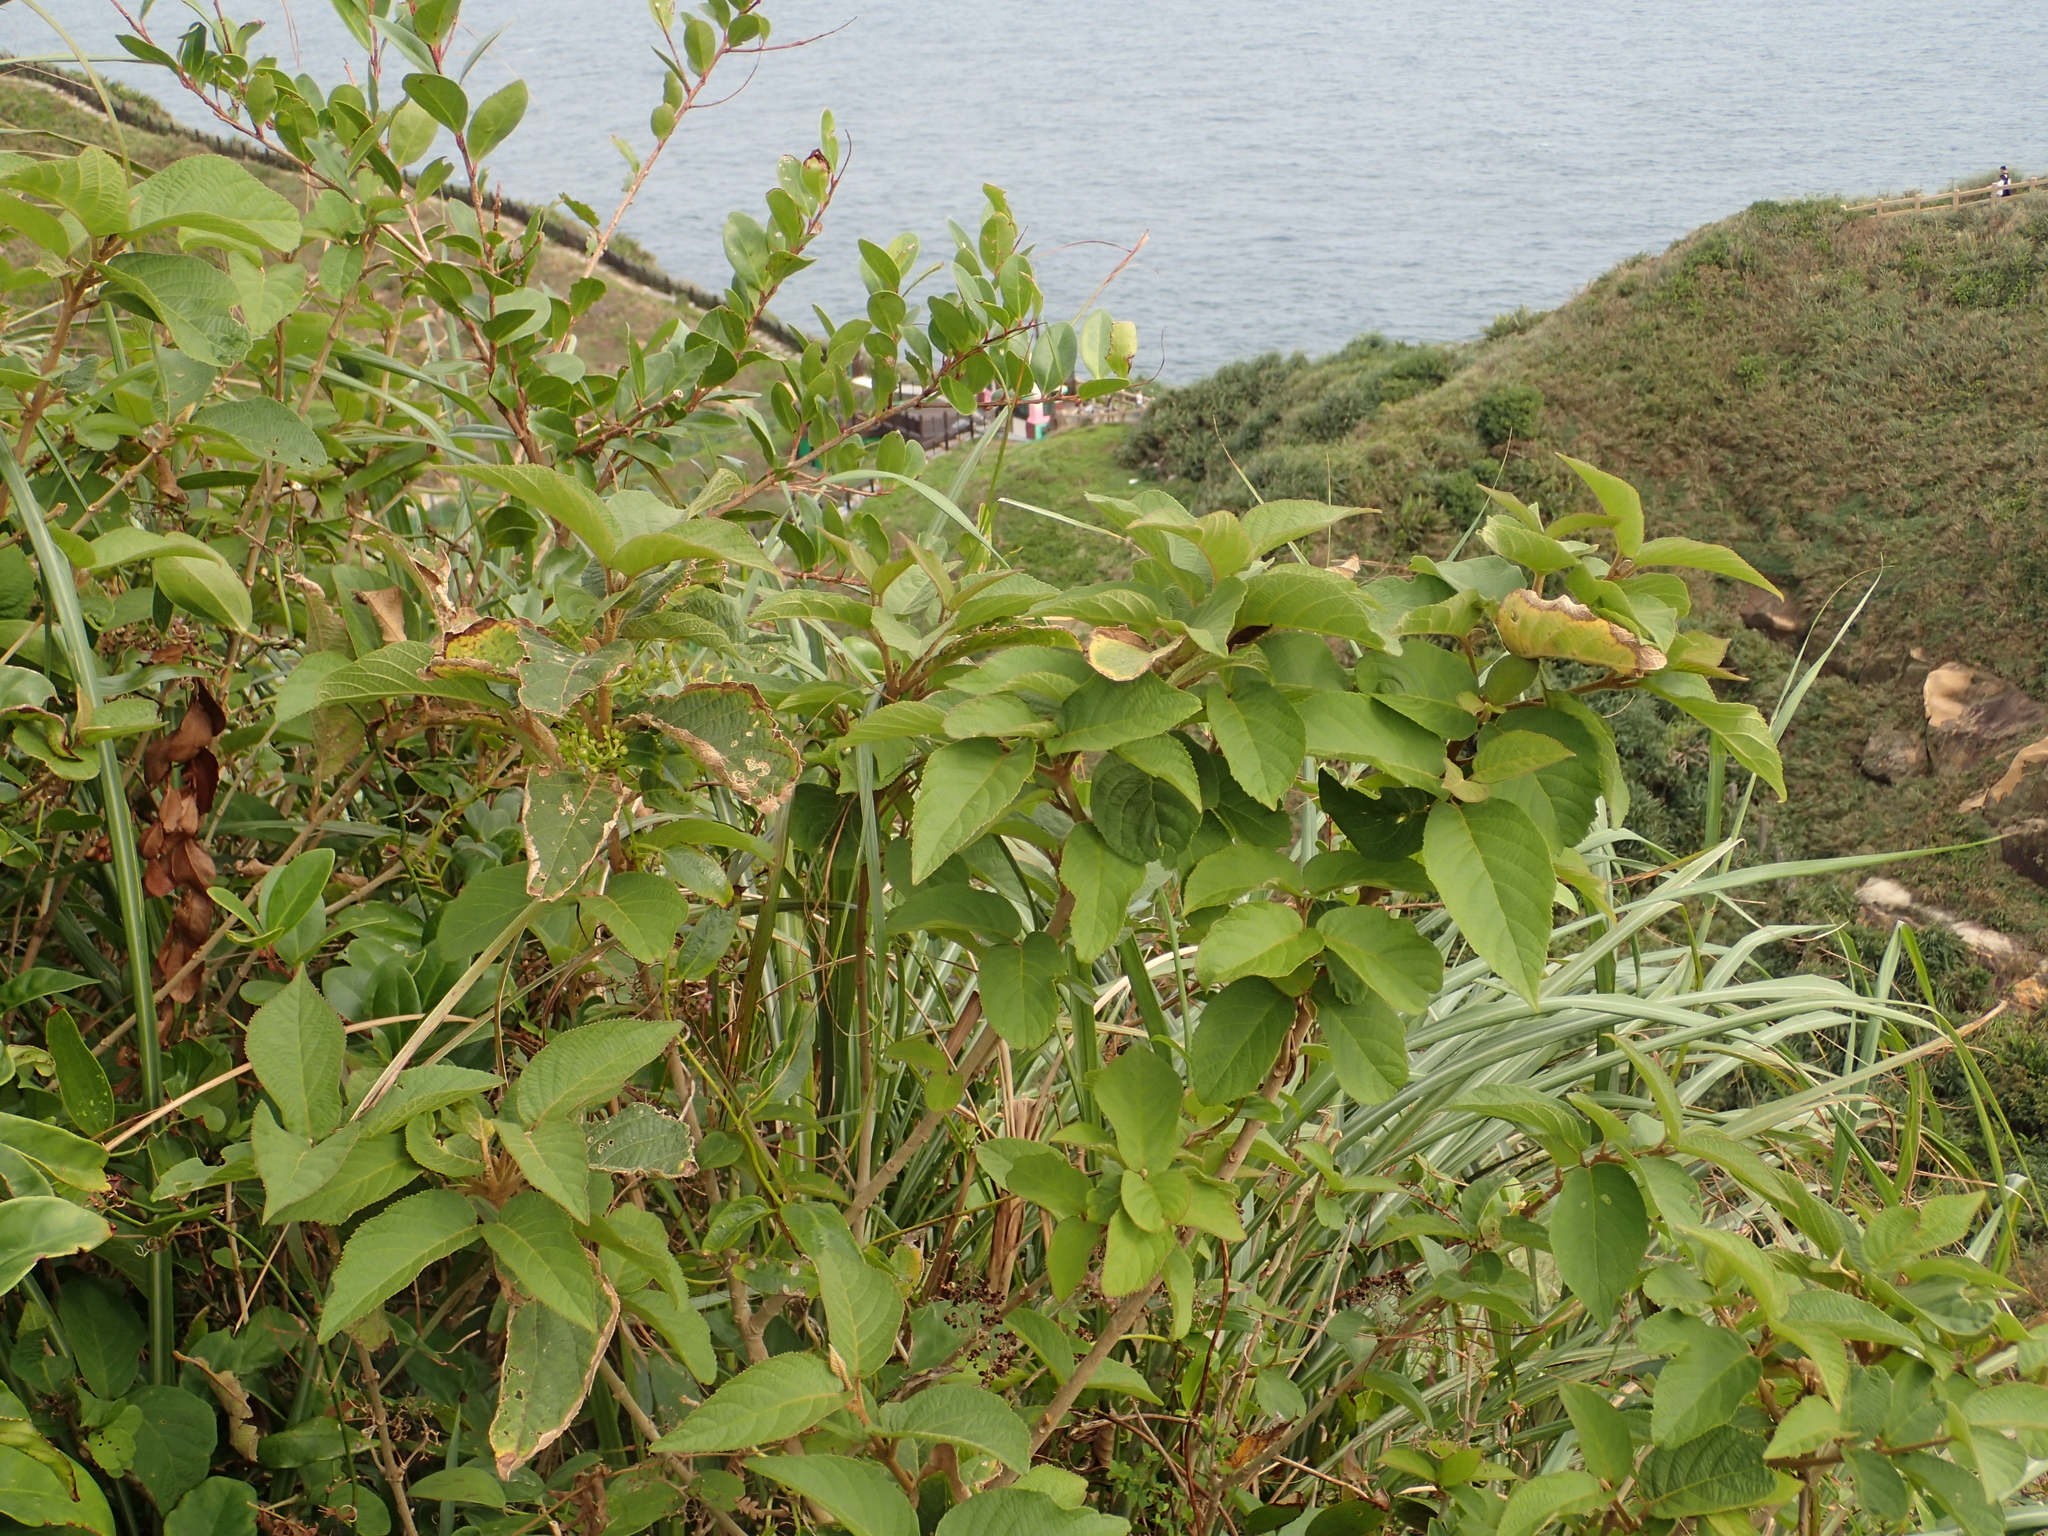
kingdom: Plantae
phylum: Tracheophyta
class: Magnoliopsida
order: Lamiales
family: Lamiaceae
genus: Callicarpa
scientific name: Callicarpa pedunculata
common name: Velvetleaf
